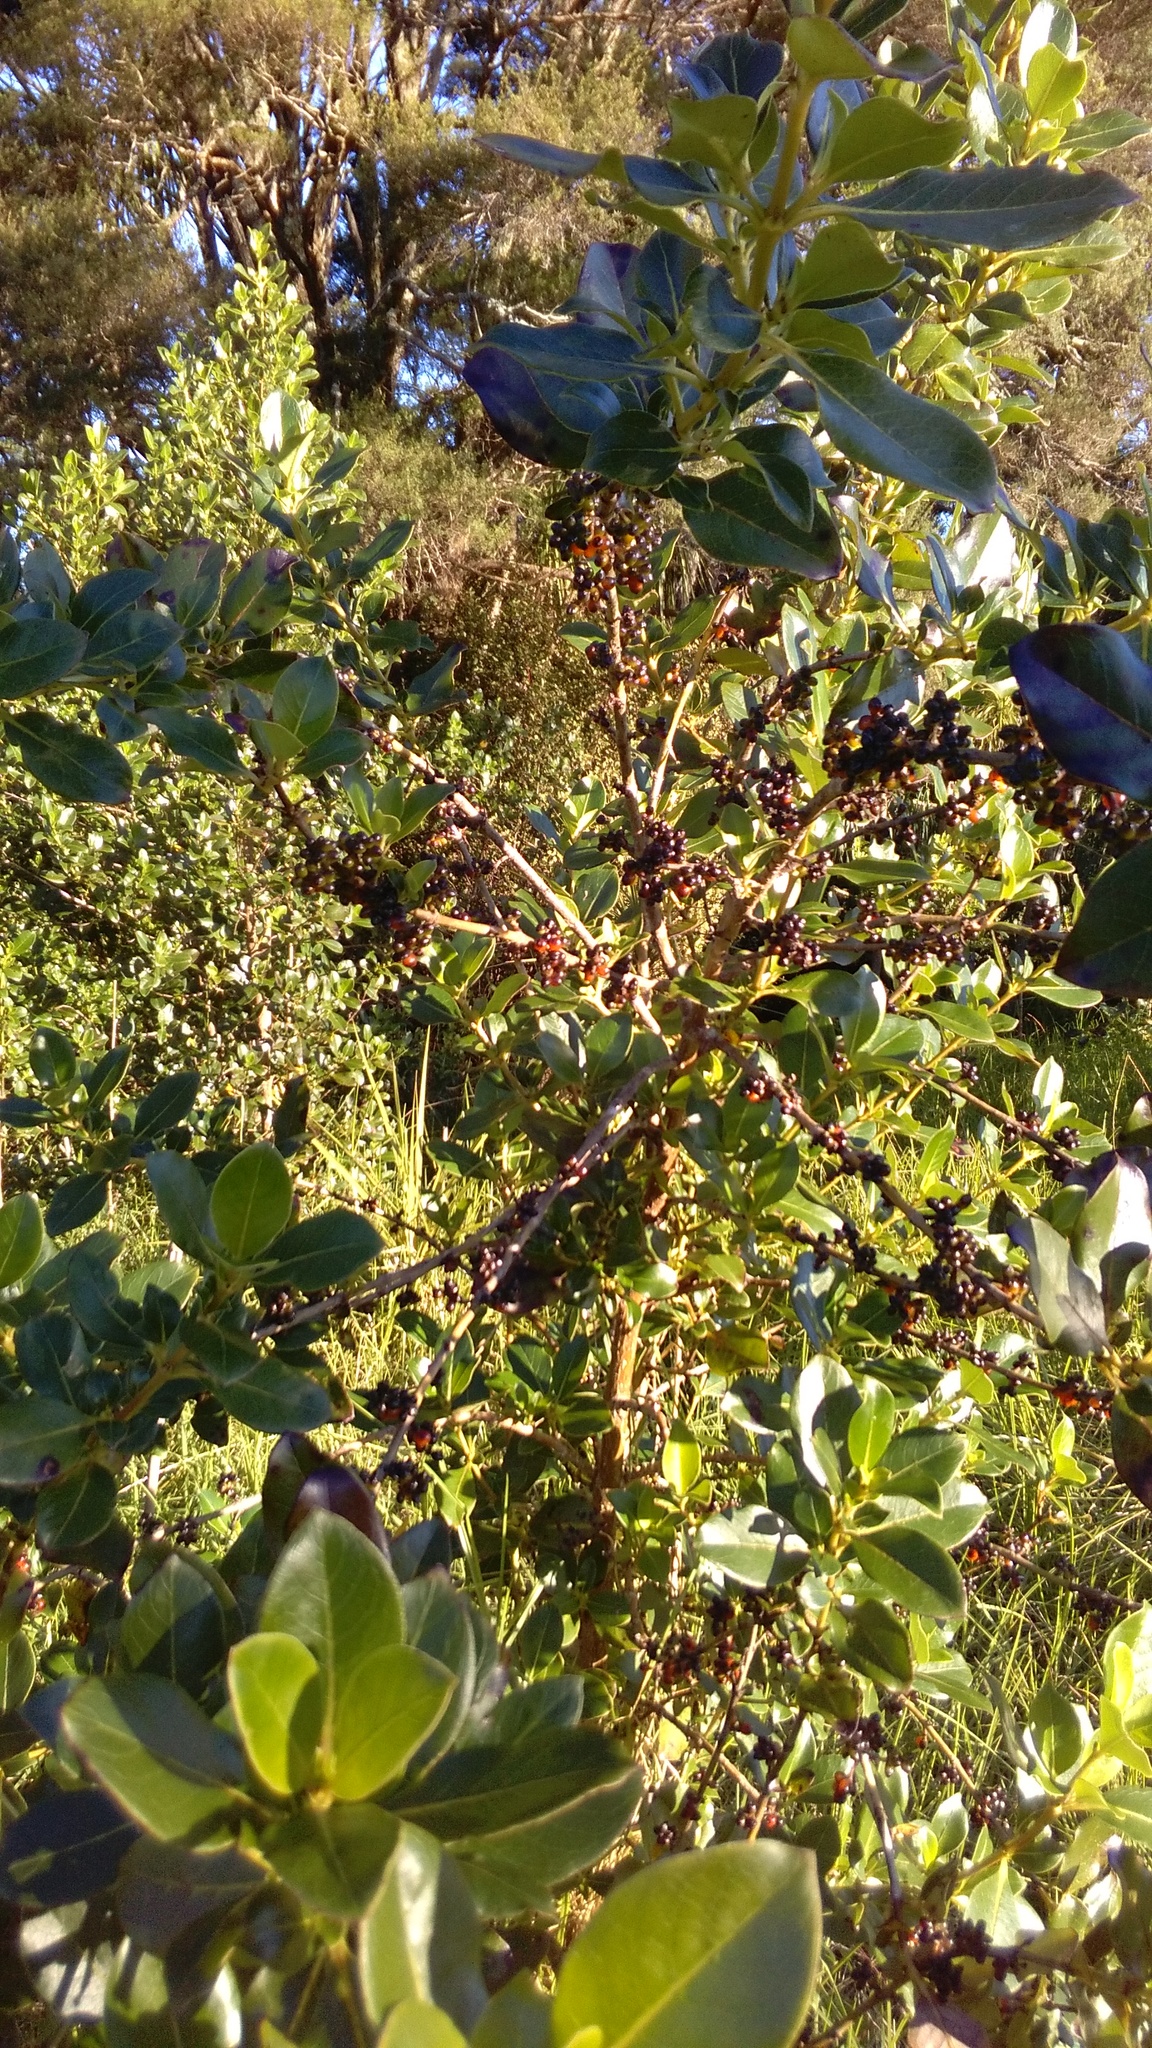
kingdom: Plantae
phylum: Tracheophyta
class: Magnoliopsida
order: Gentianales
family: Rubiaceae
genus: Coprosma
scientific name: Coprosma robusta
